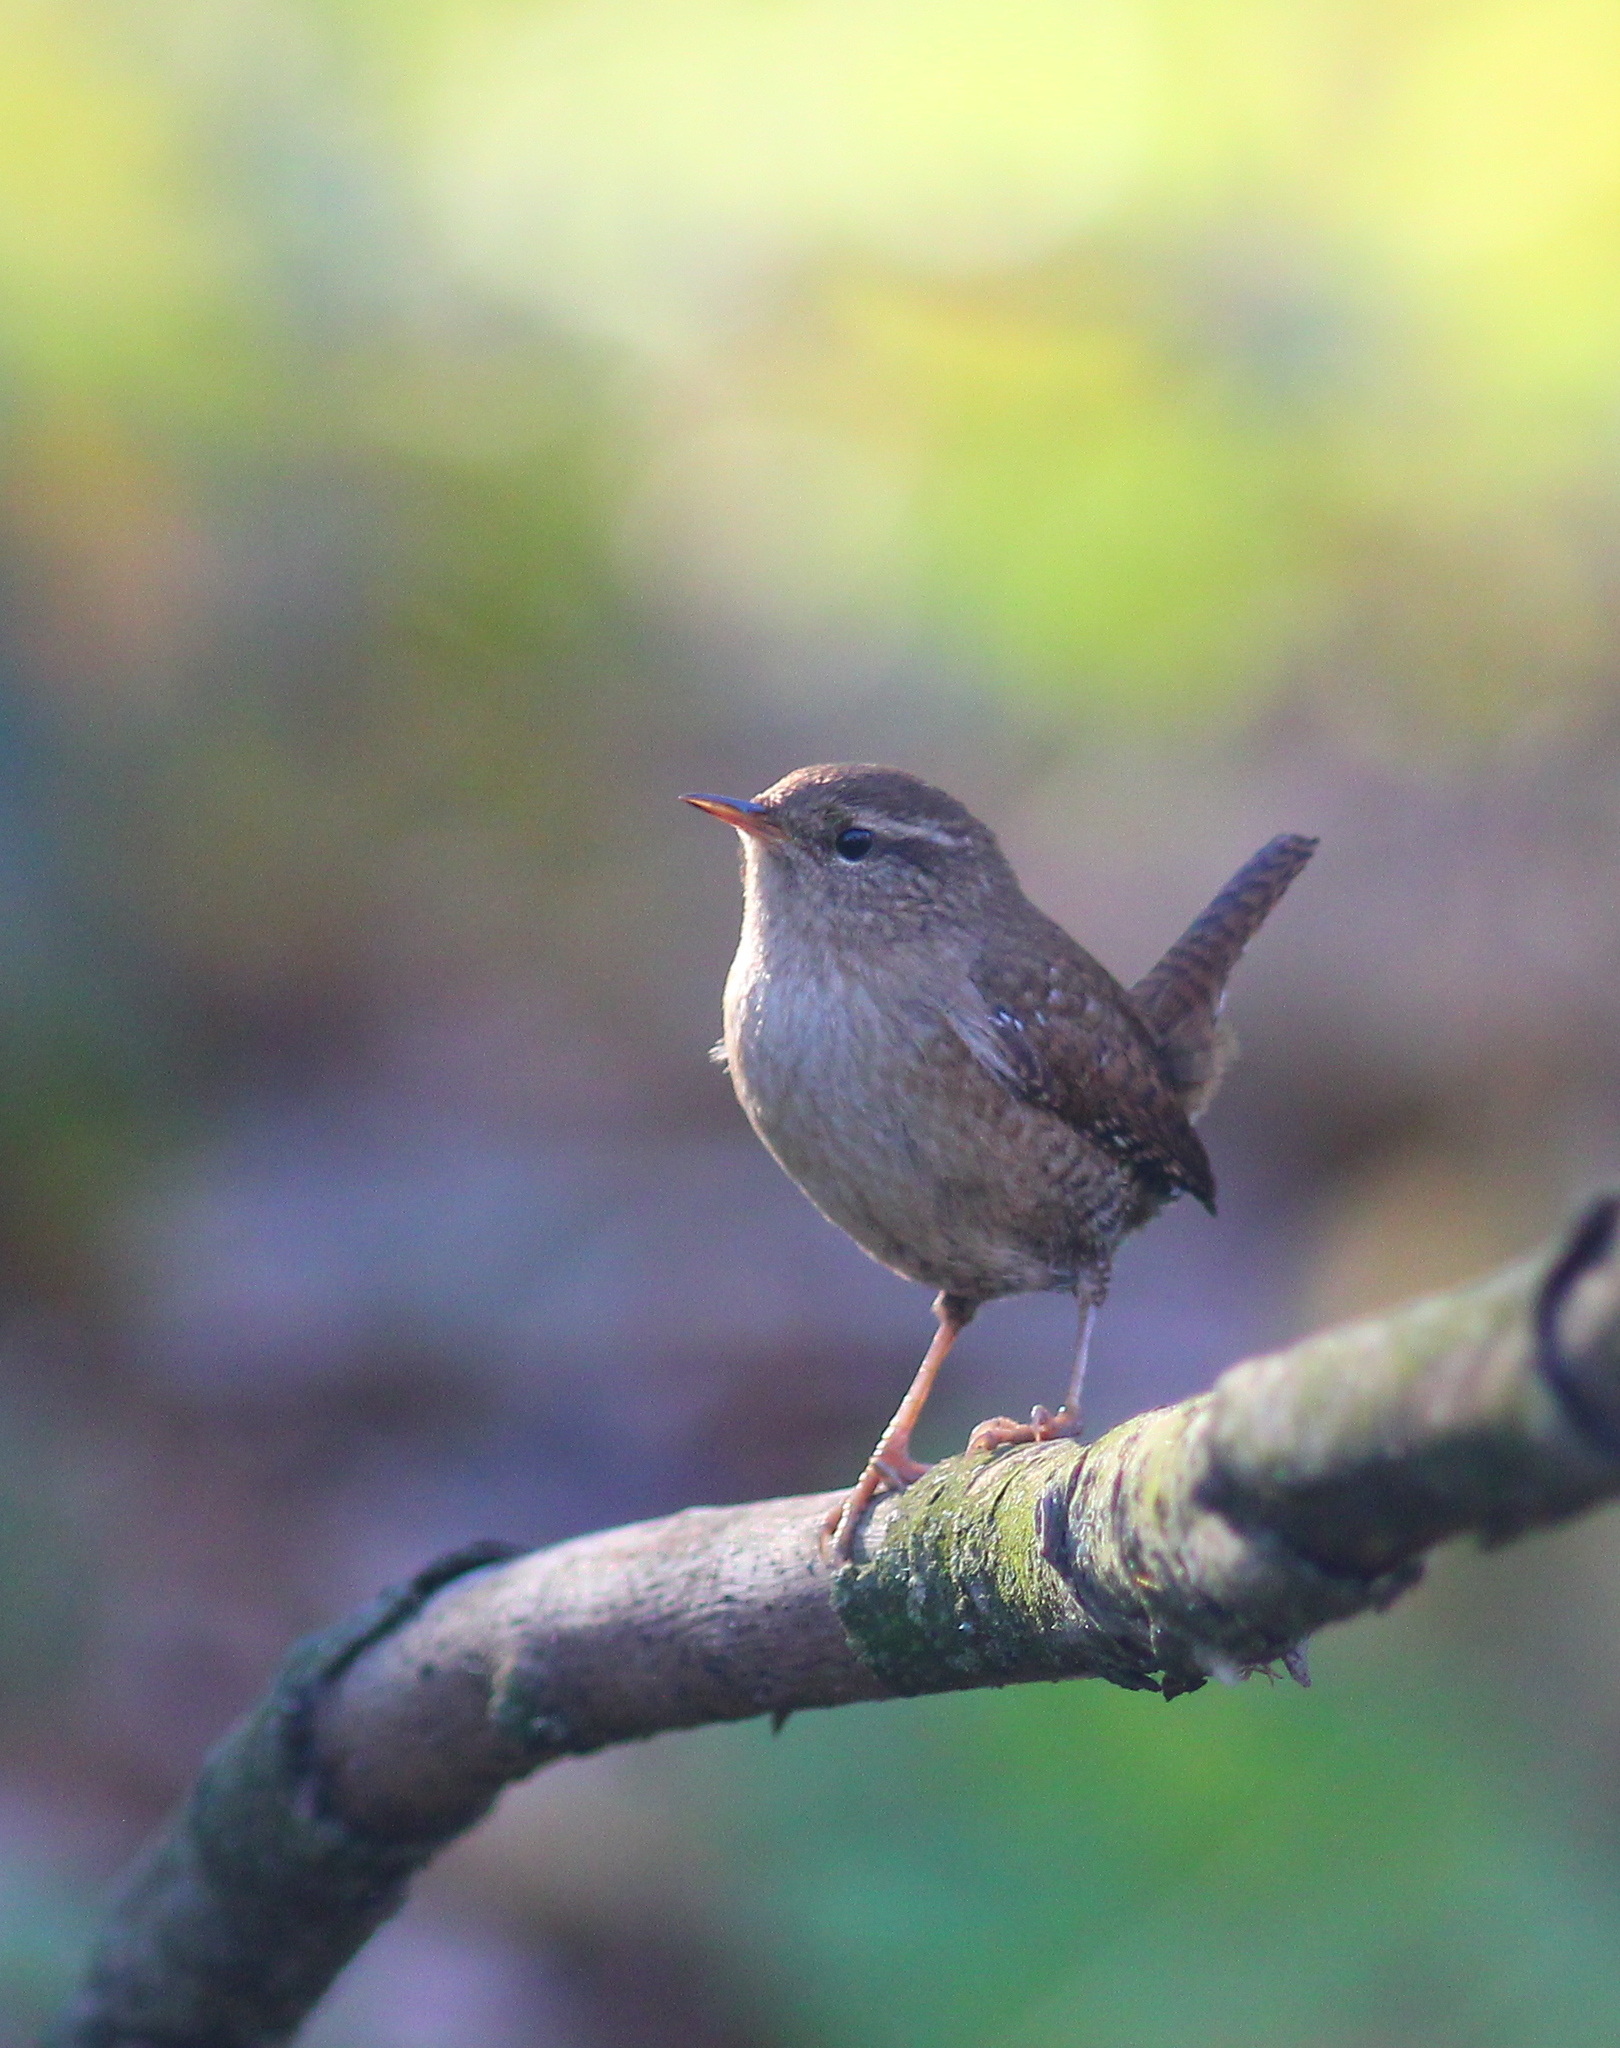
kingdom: Animalia
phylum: Chordata
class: Aves
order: Passeriformes
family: Troglodytidae
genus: Troglodytes
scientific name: Troglodytes troglodytes
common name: Eurasian wren
